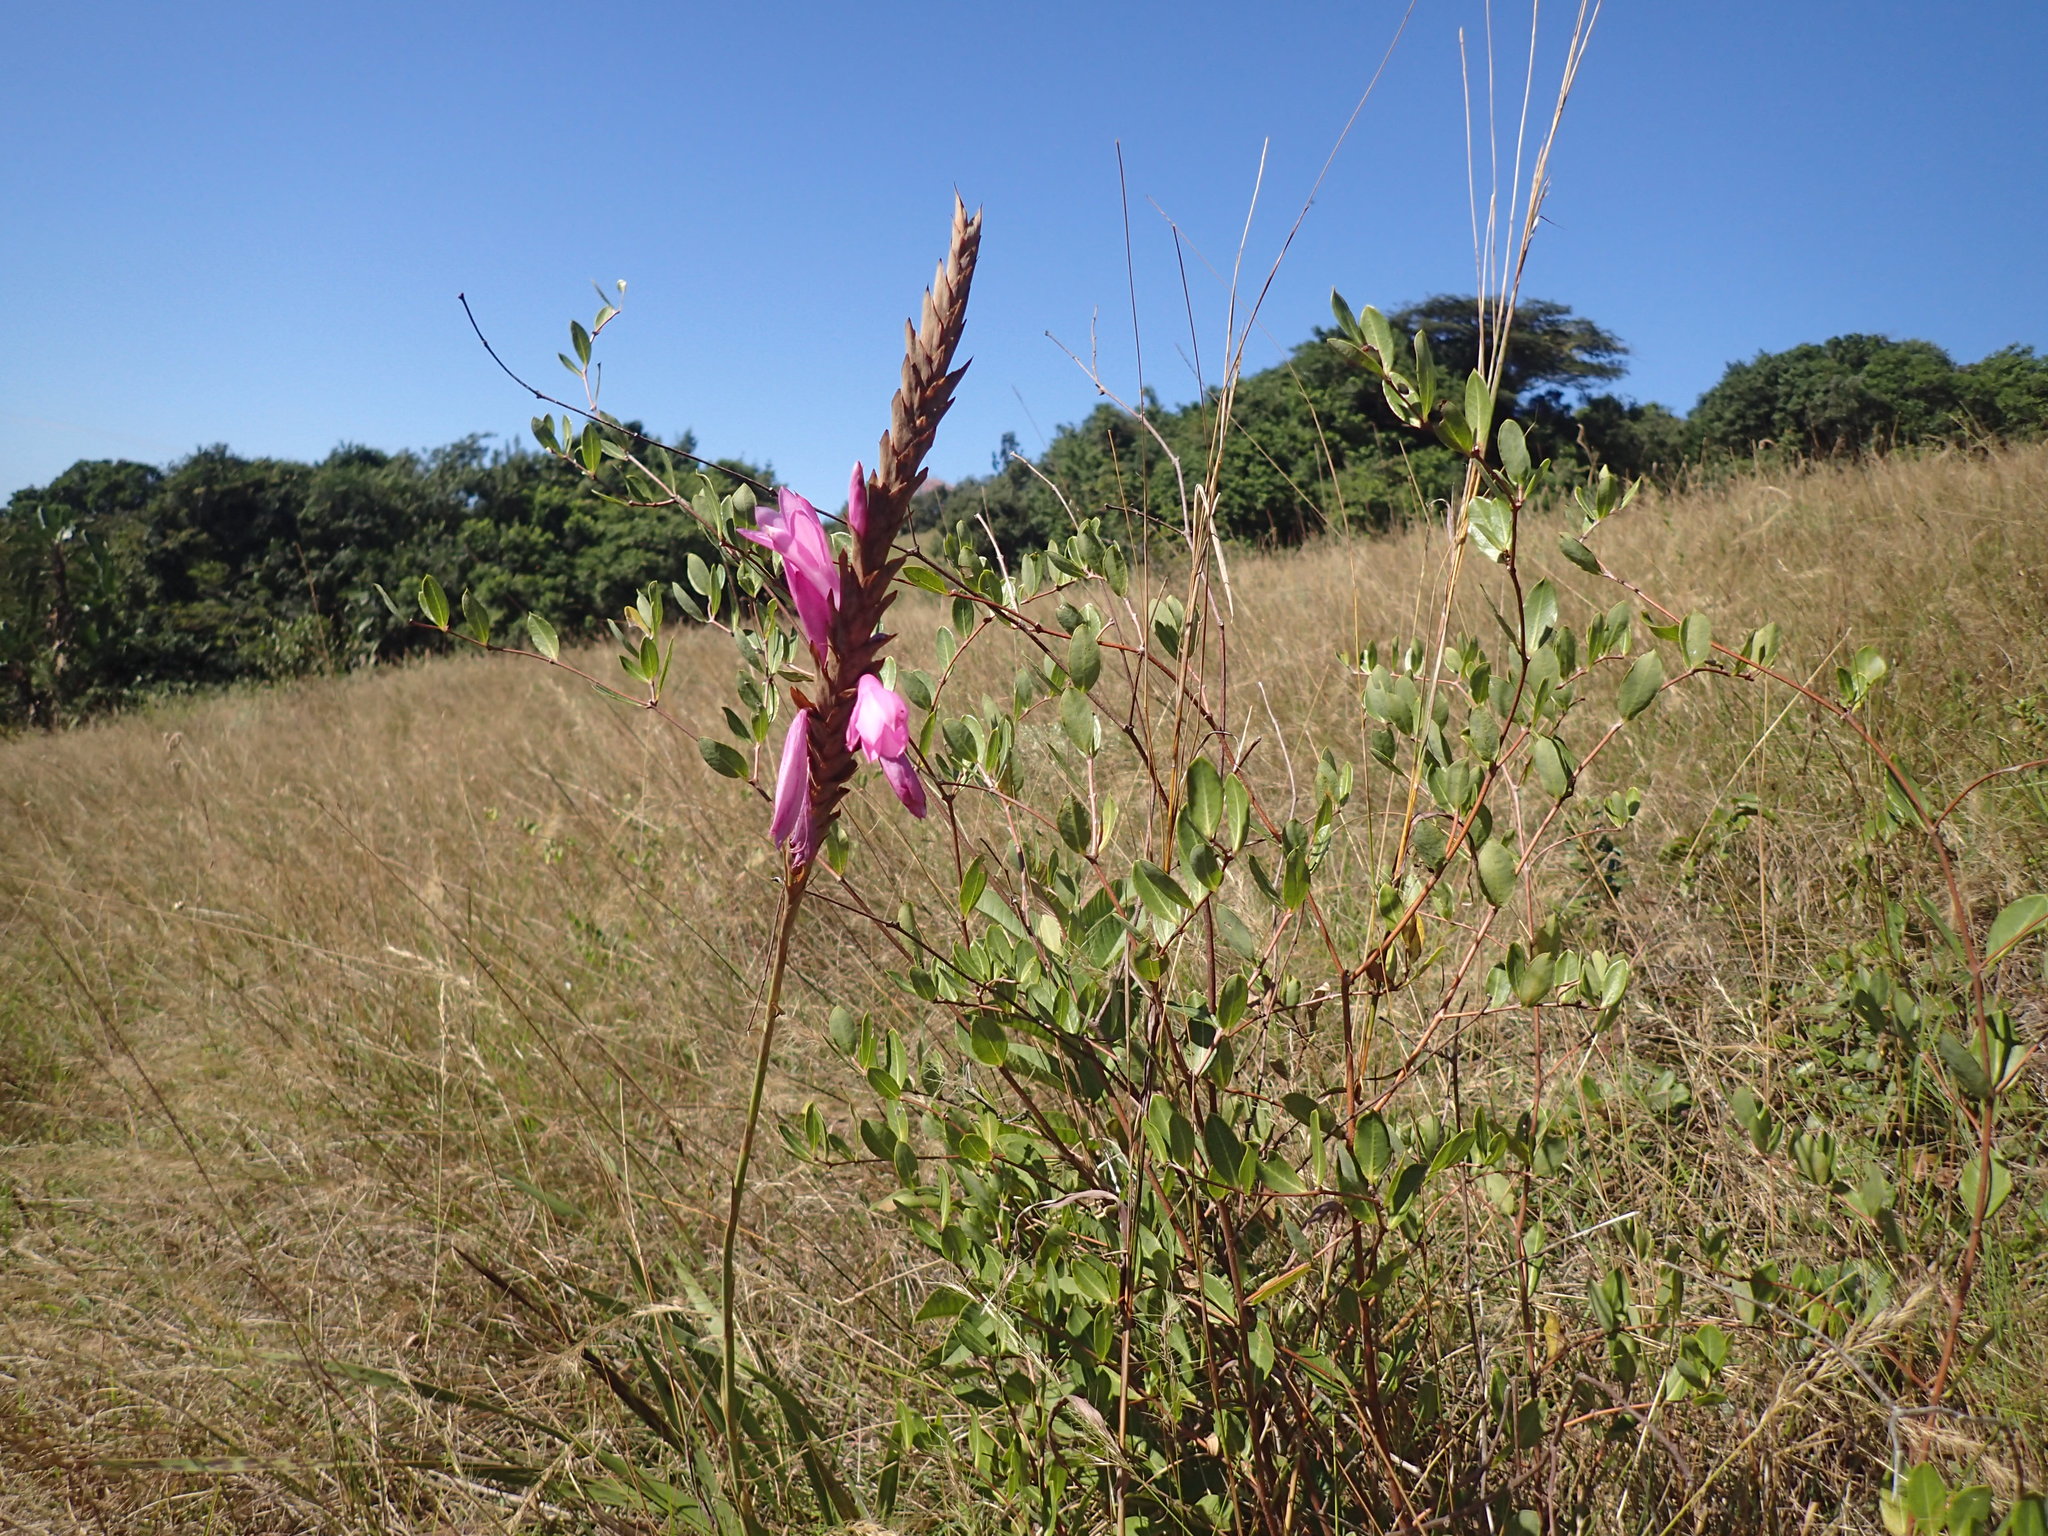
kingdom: Plantae
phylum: Tracheophyta
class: Liliopsida
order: Asparagales
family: Iridaceae
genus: Watsonia
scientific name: Watsonia densiflora
